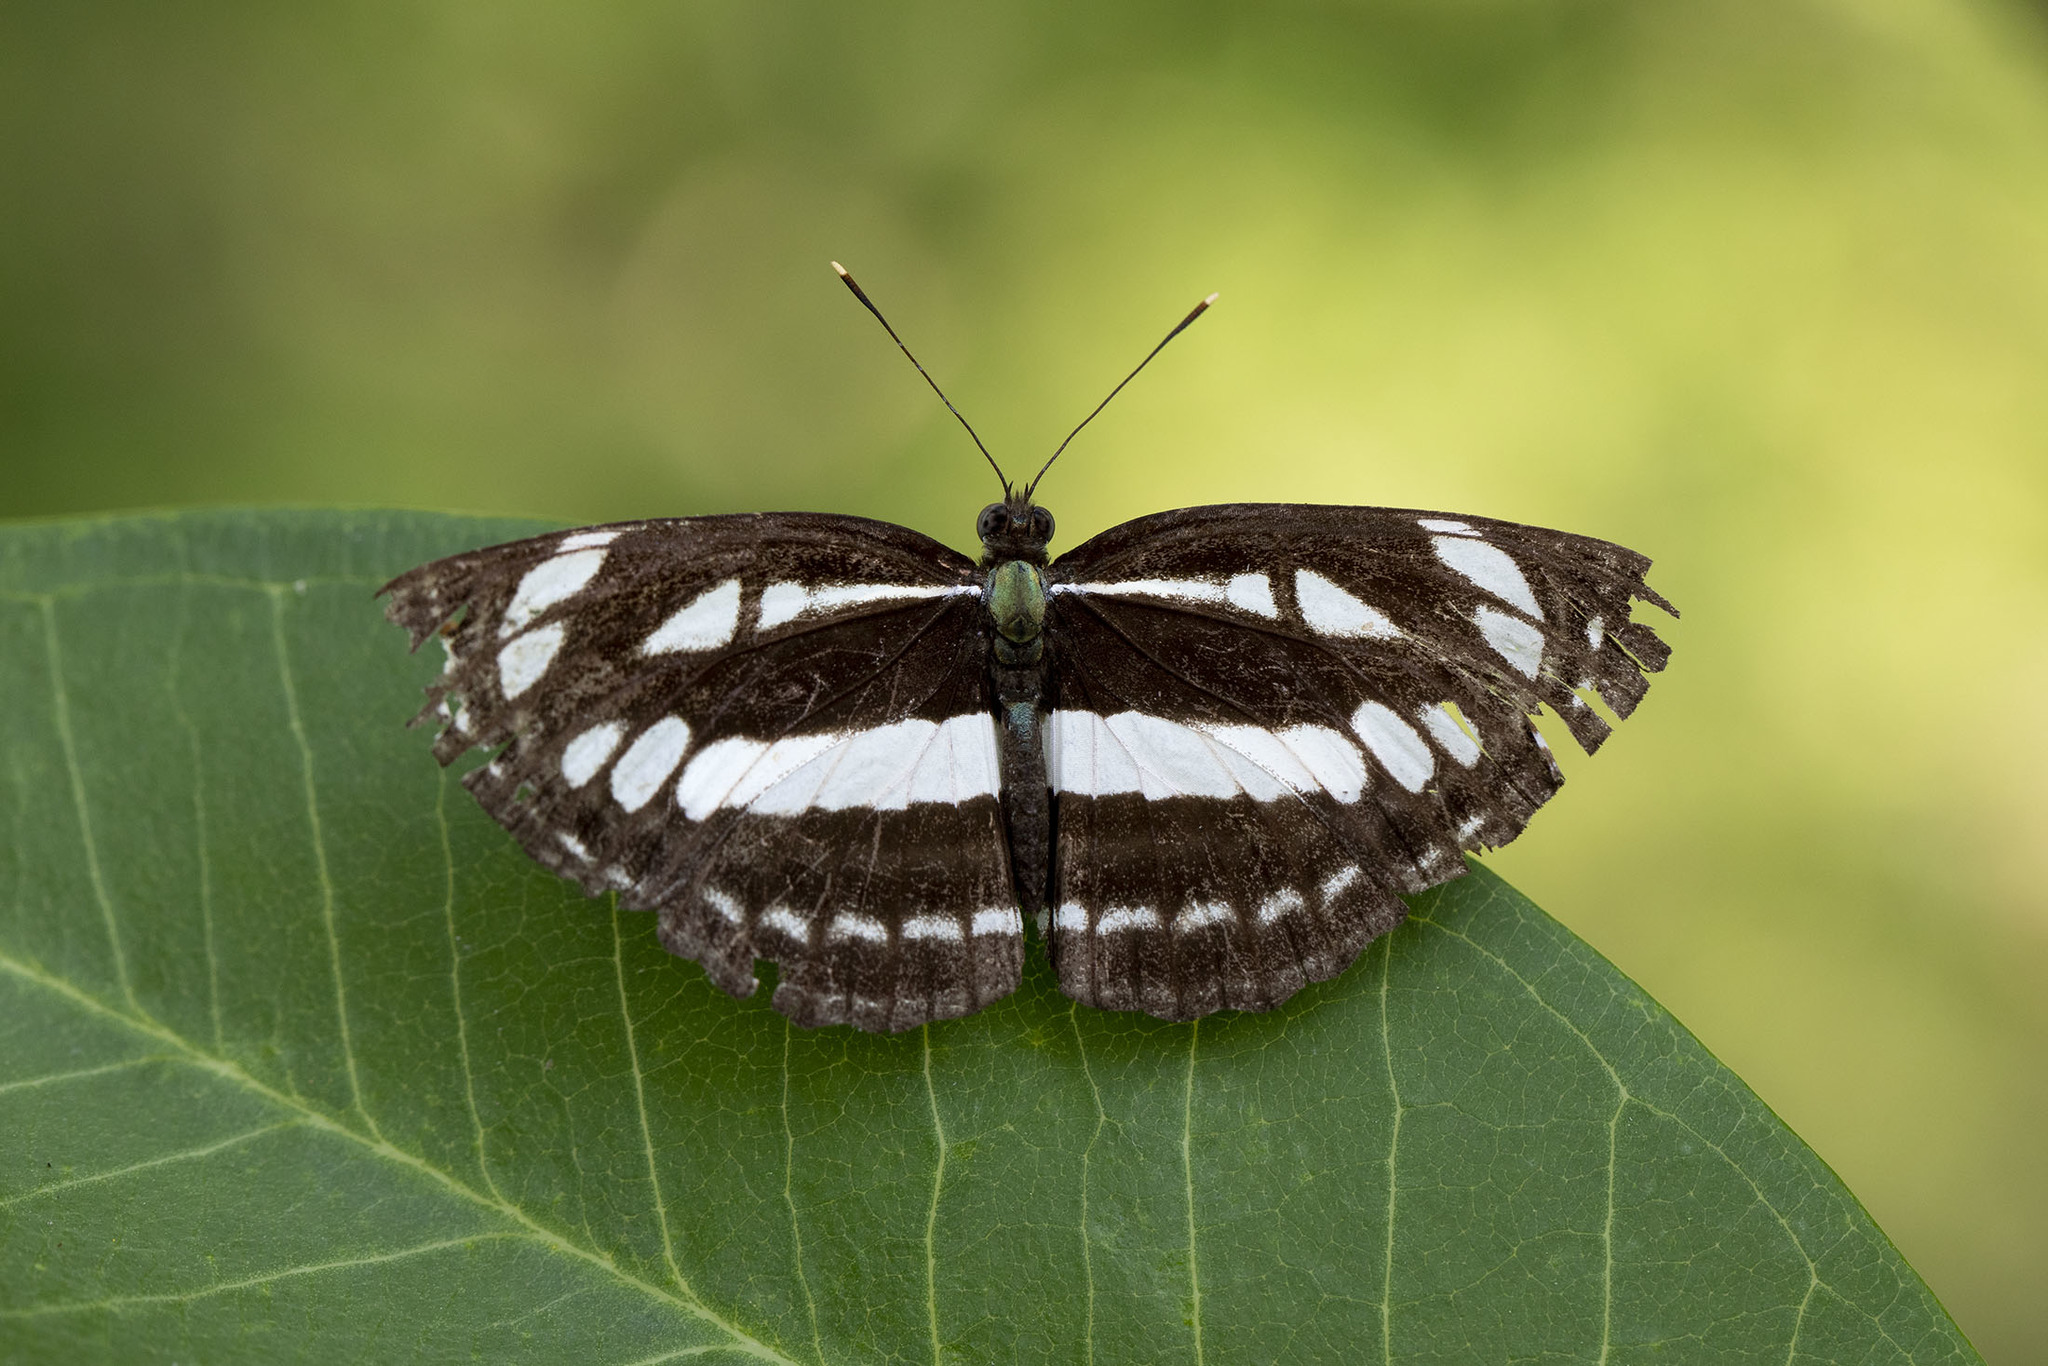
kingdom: Animalia
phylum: Arthropoda
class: Insecta
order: Lepidoptera
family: Nymphalidae
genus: Neptis
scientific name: Neptis hylas
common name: Common sailer
